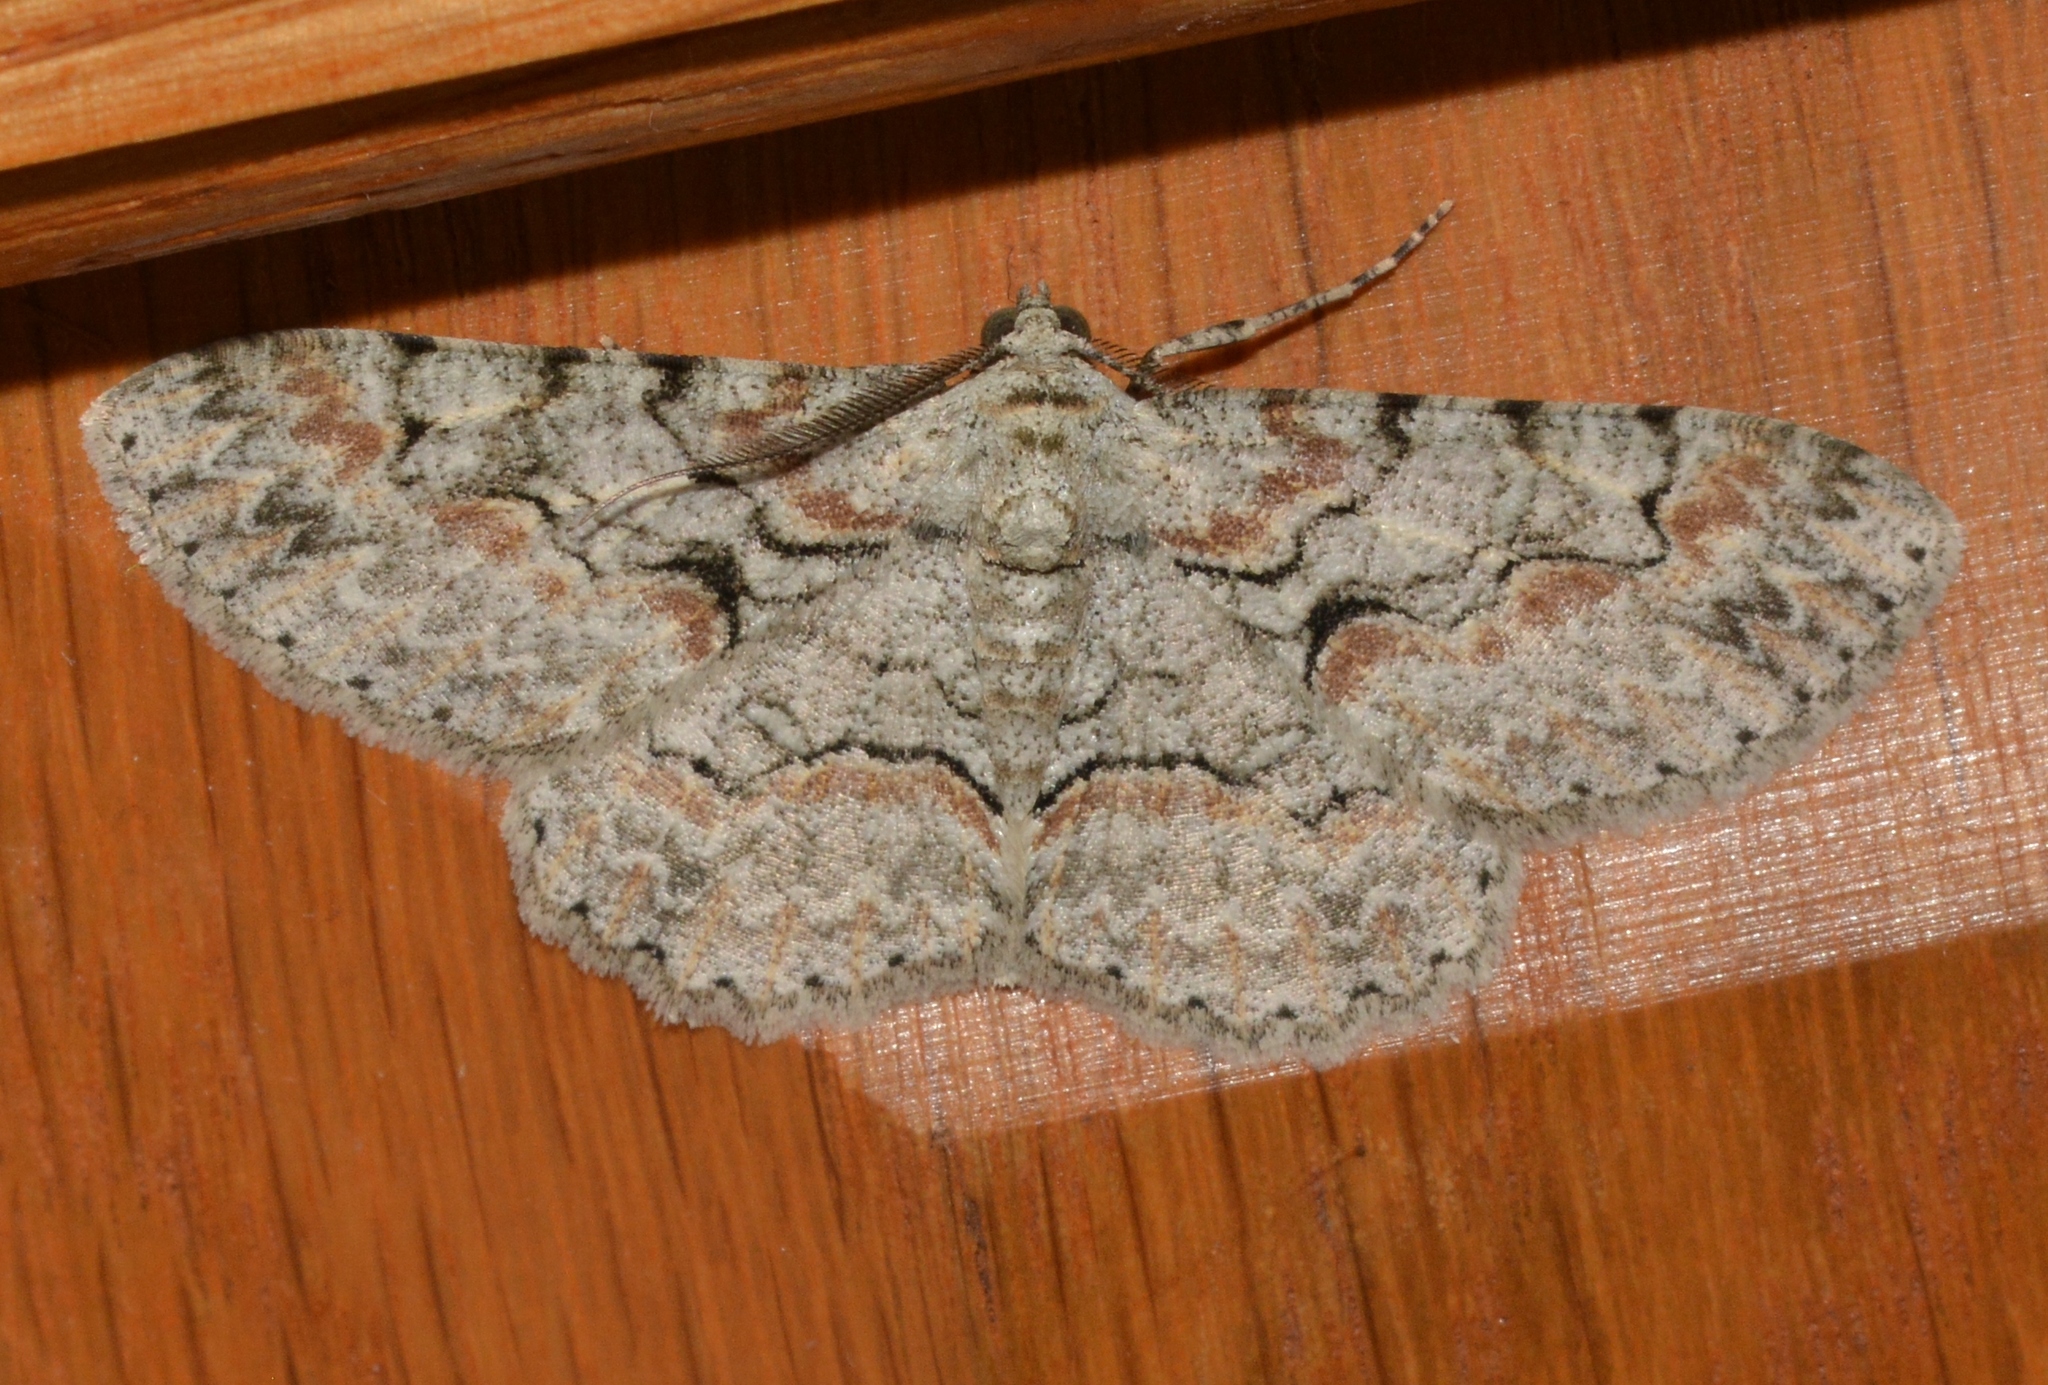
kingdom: Animalia
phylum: Arthropoda
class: Insecta
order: Lepidoptera
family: Geometridae
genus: Iridopsis
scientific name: Iridopsis defectaria
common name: Brown-shaded gray
